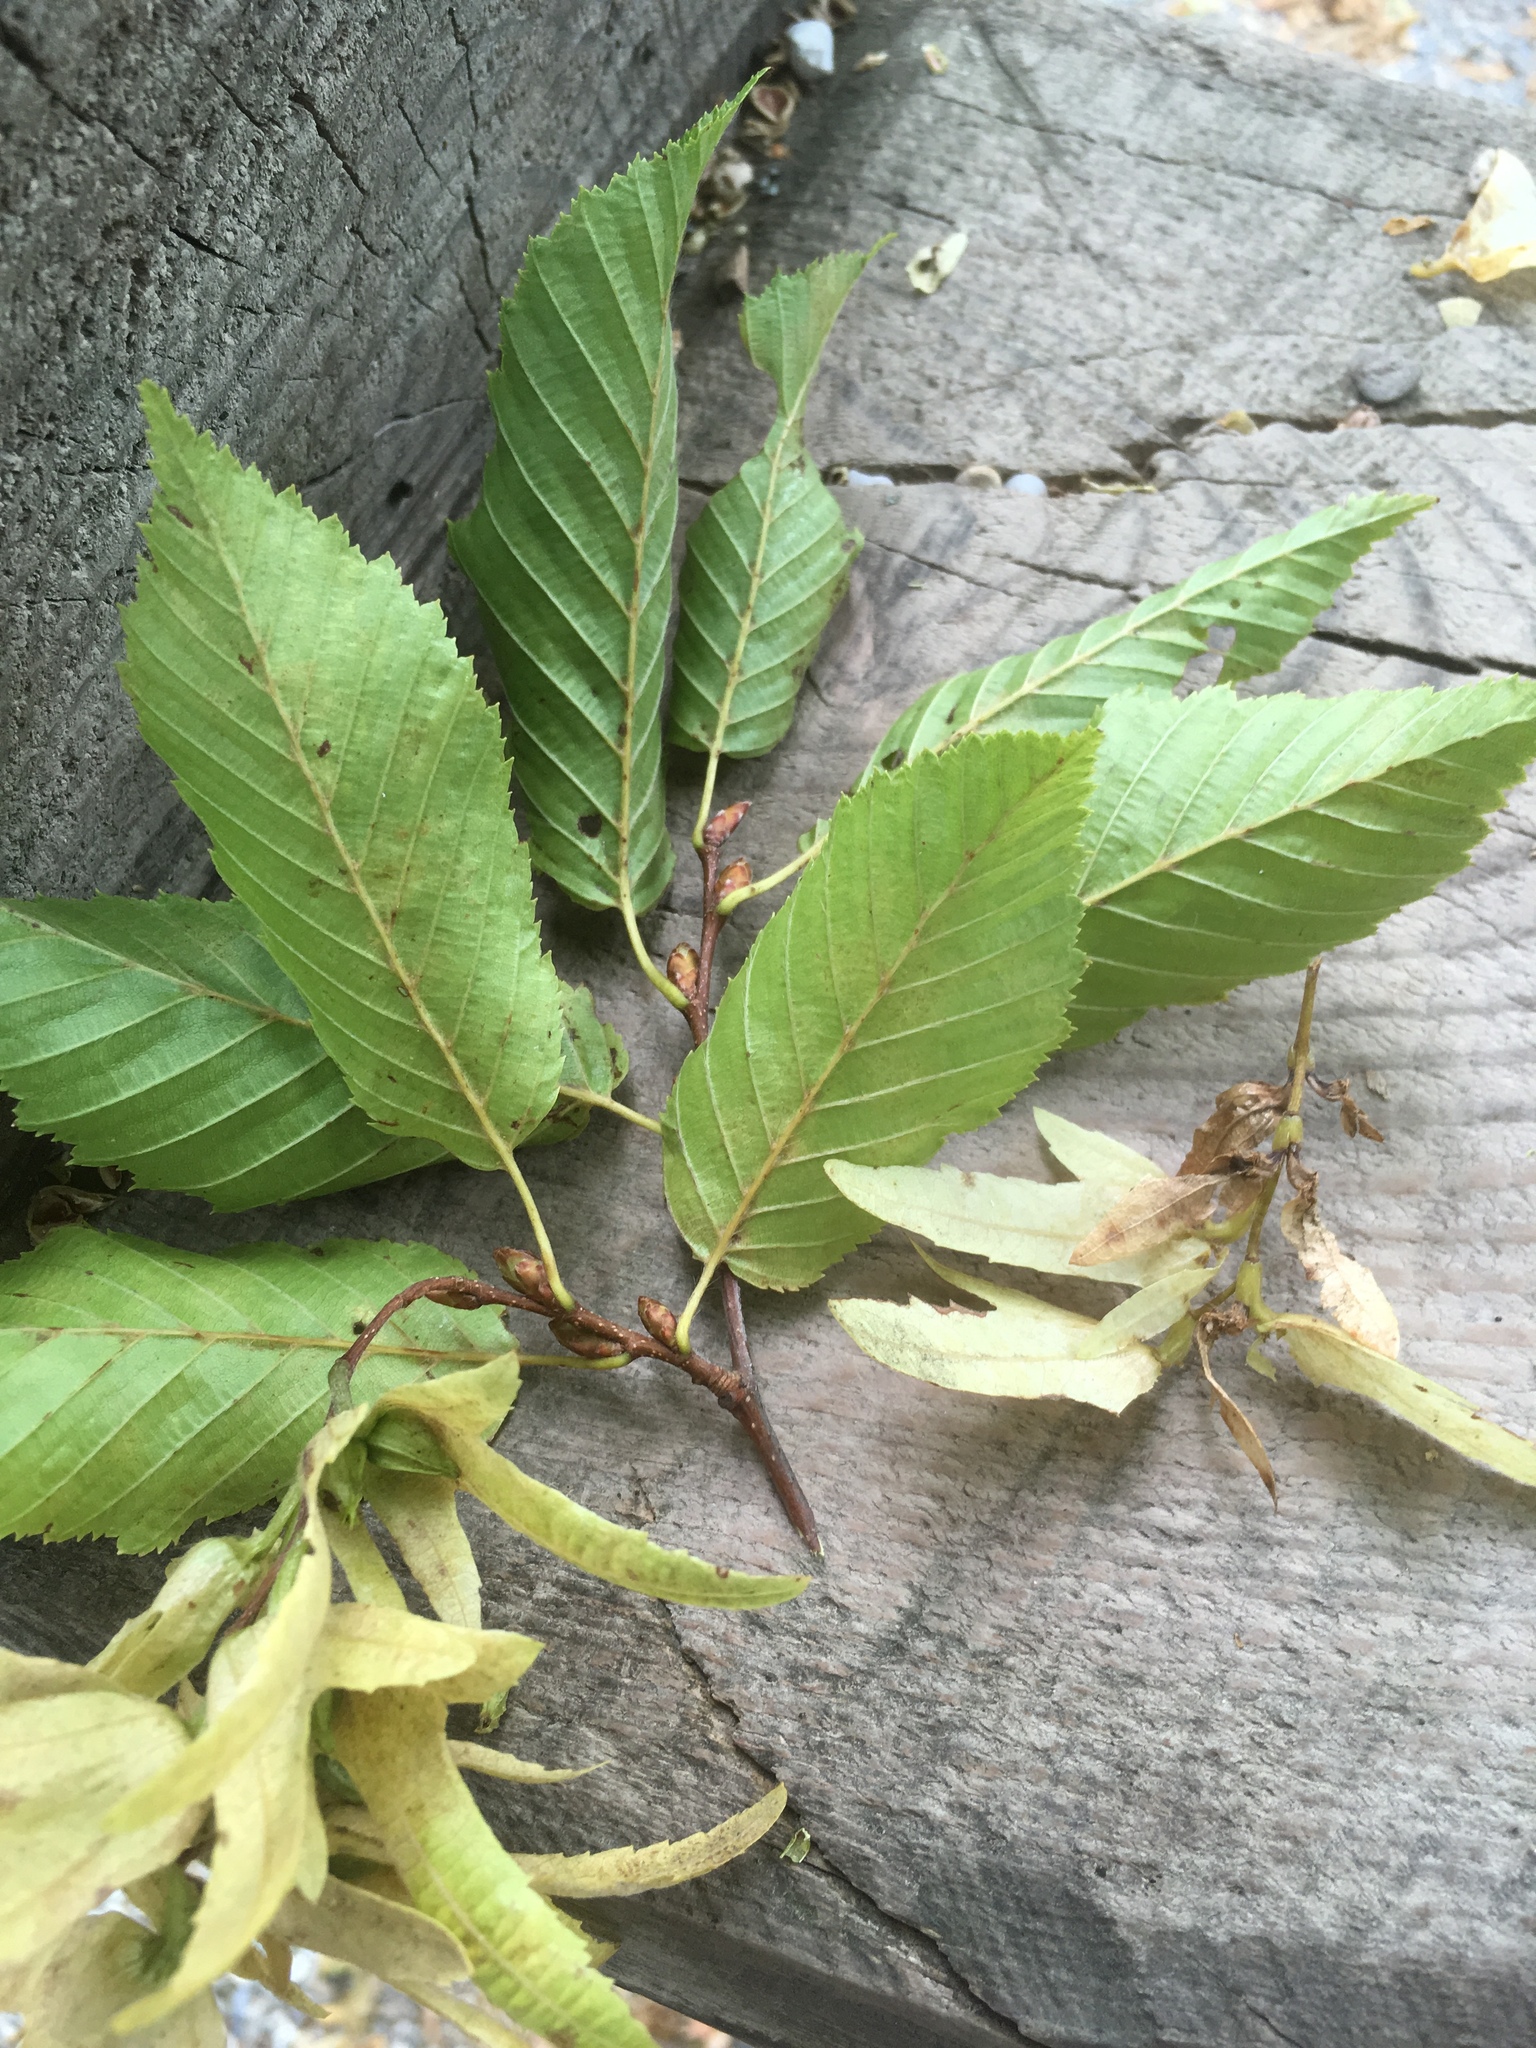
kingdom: Plantae
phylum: Tracheophyta
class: Magnoliopsida
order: Fagales
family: Betulaceae
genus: Carpinus
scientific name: Carpinus betulus
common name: Hornbeam
